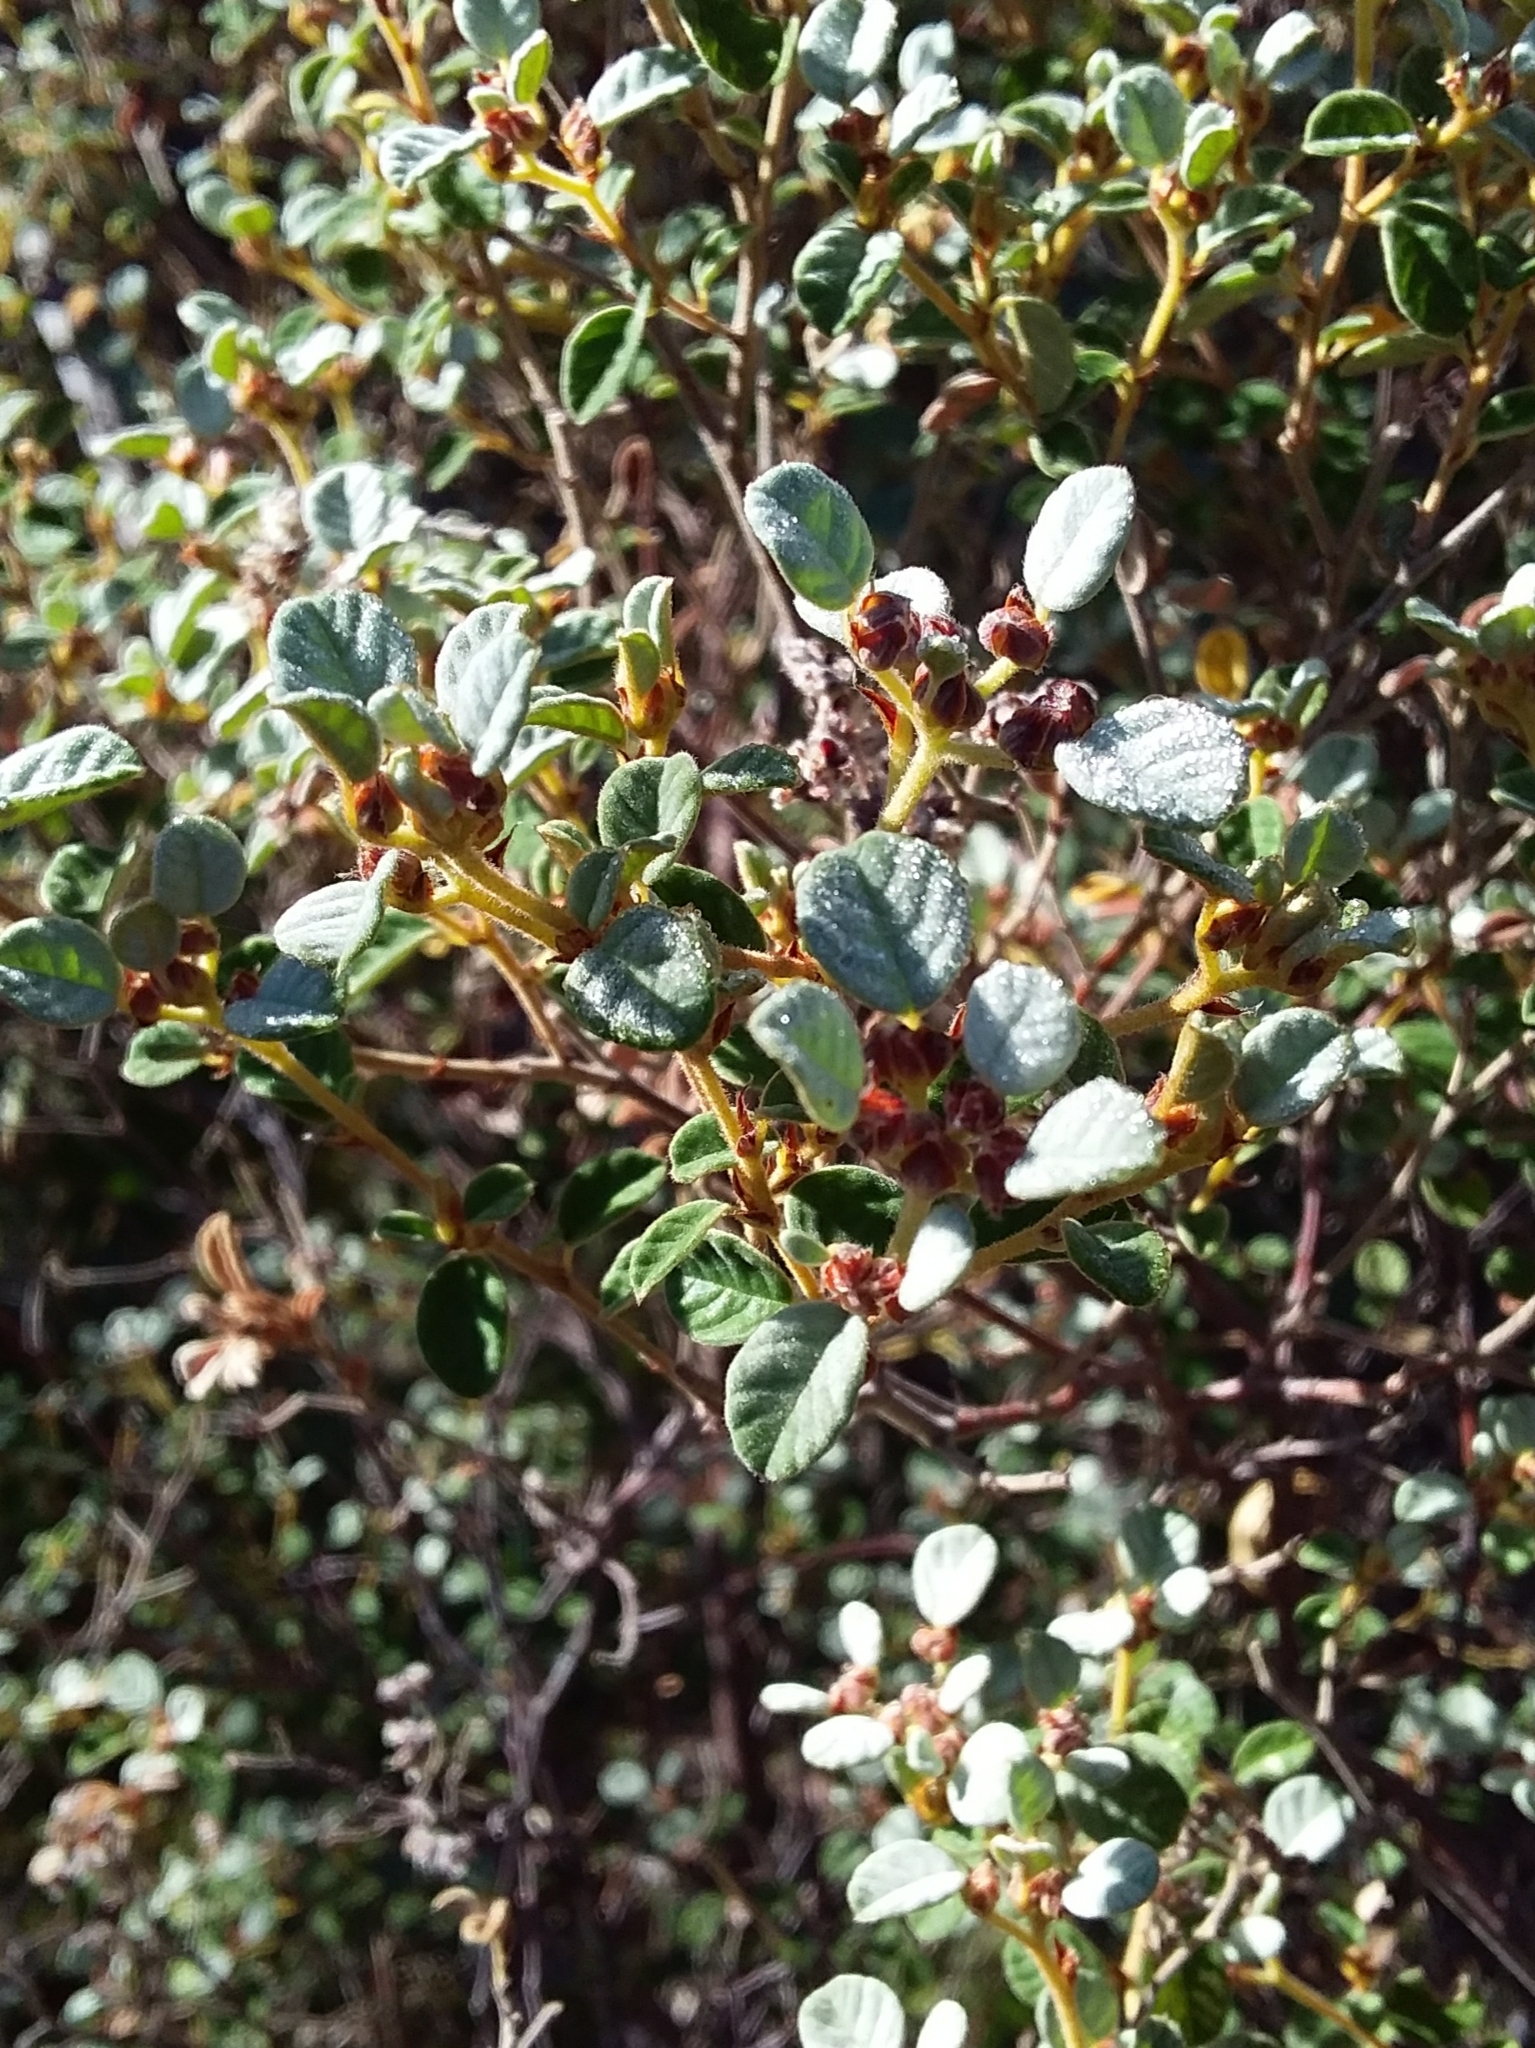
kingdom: Plantae
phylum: Tracheophyta
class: Magnoliopsida
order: Rosales
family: Rhamnaceae
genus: Spyridium
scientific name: Spyridium parvifolium
